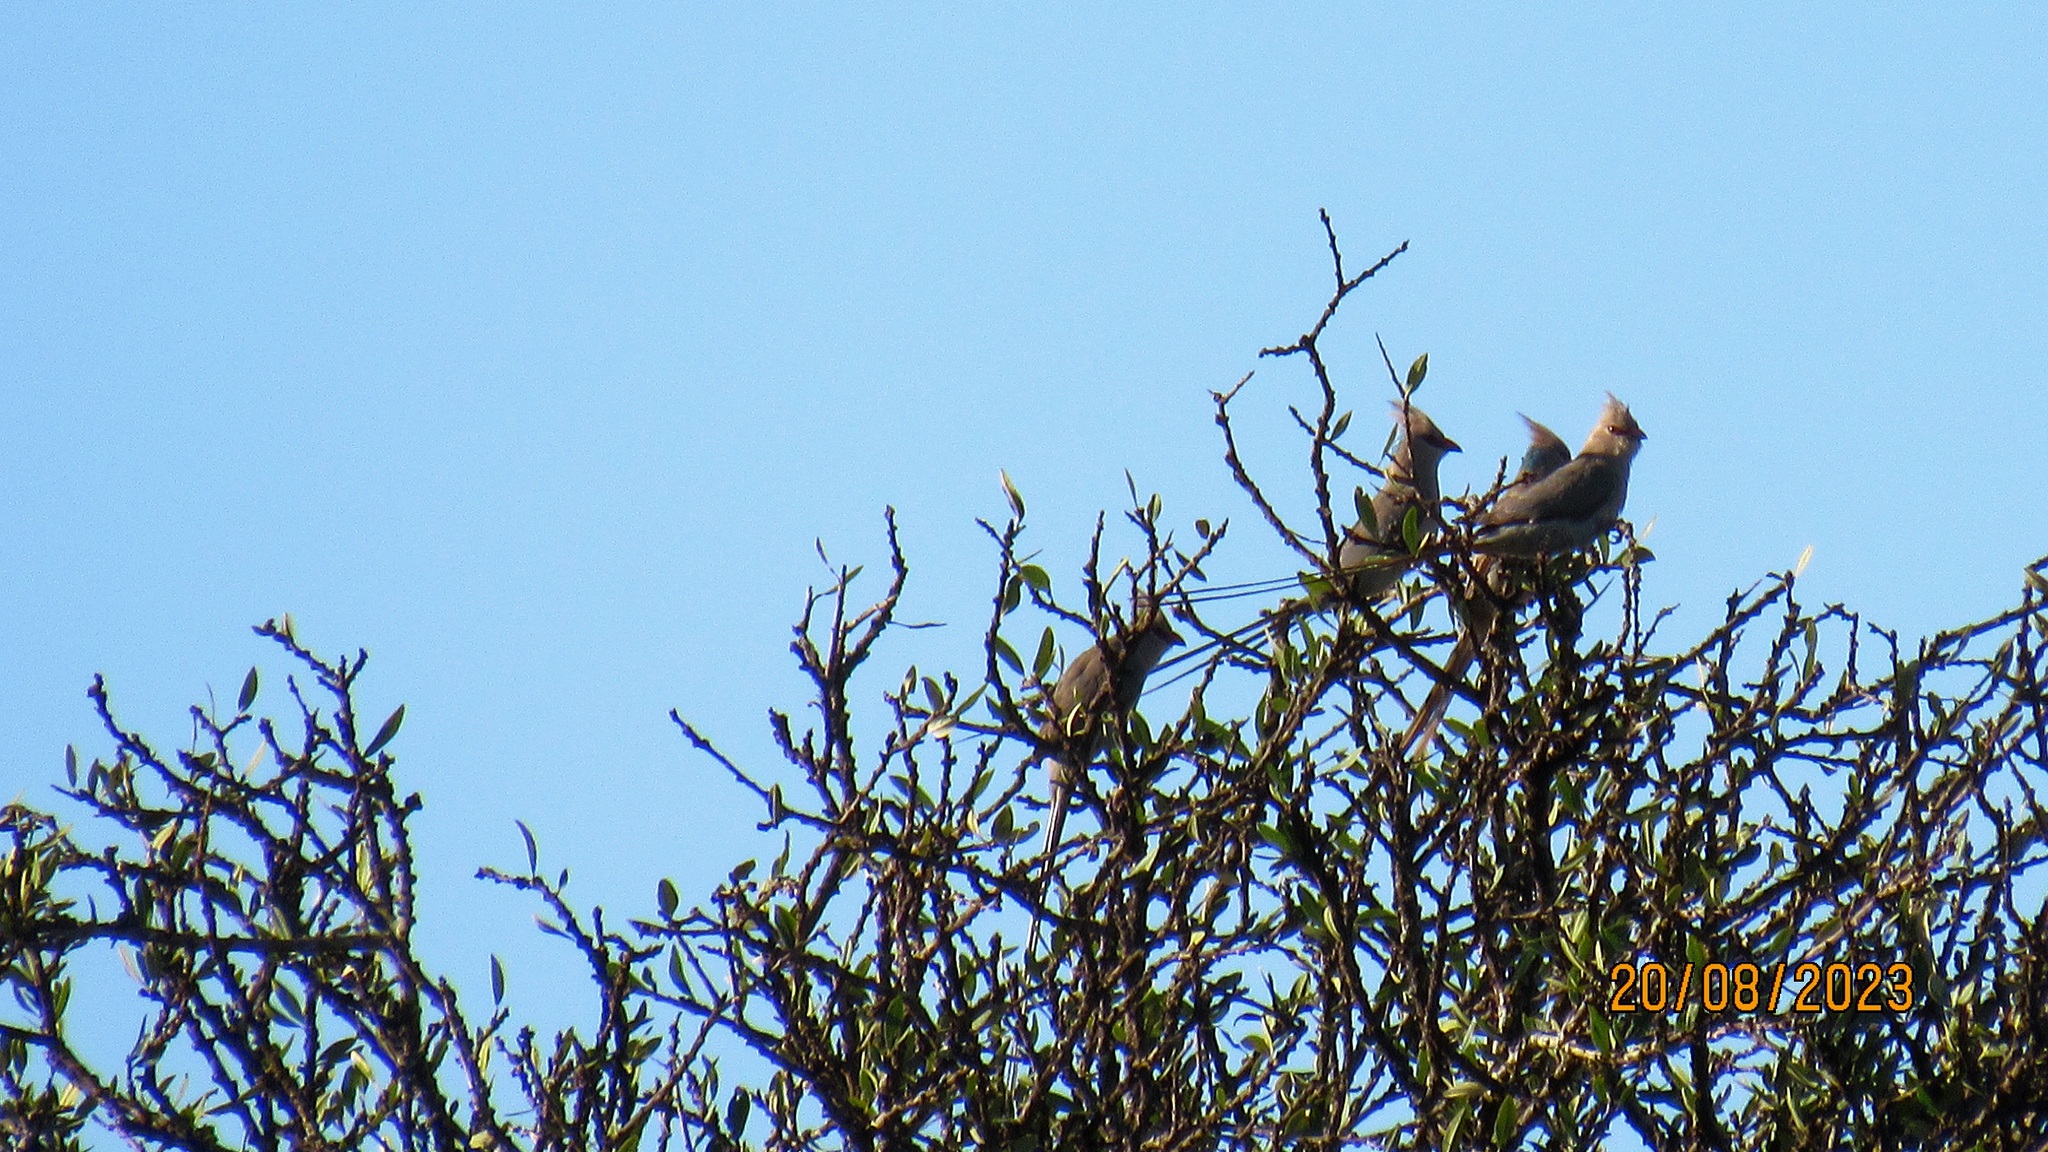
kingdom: Animalia
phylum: Chordata
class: Aves
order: Coliiformes
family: Coliidae
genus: Urocolius
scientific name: Urocolius macrourus
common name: Blue-naped mousebird
